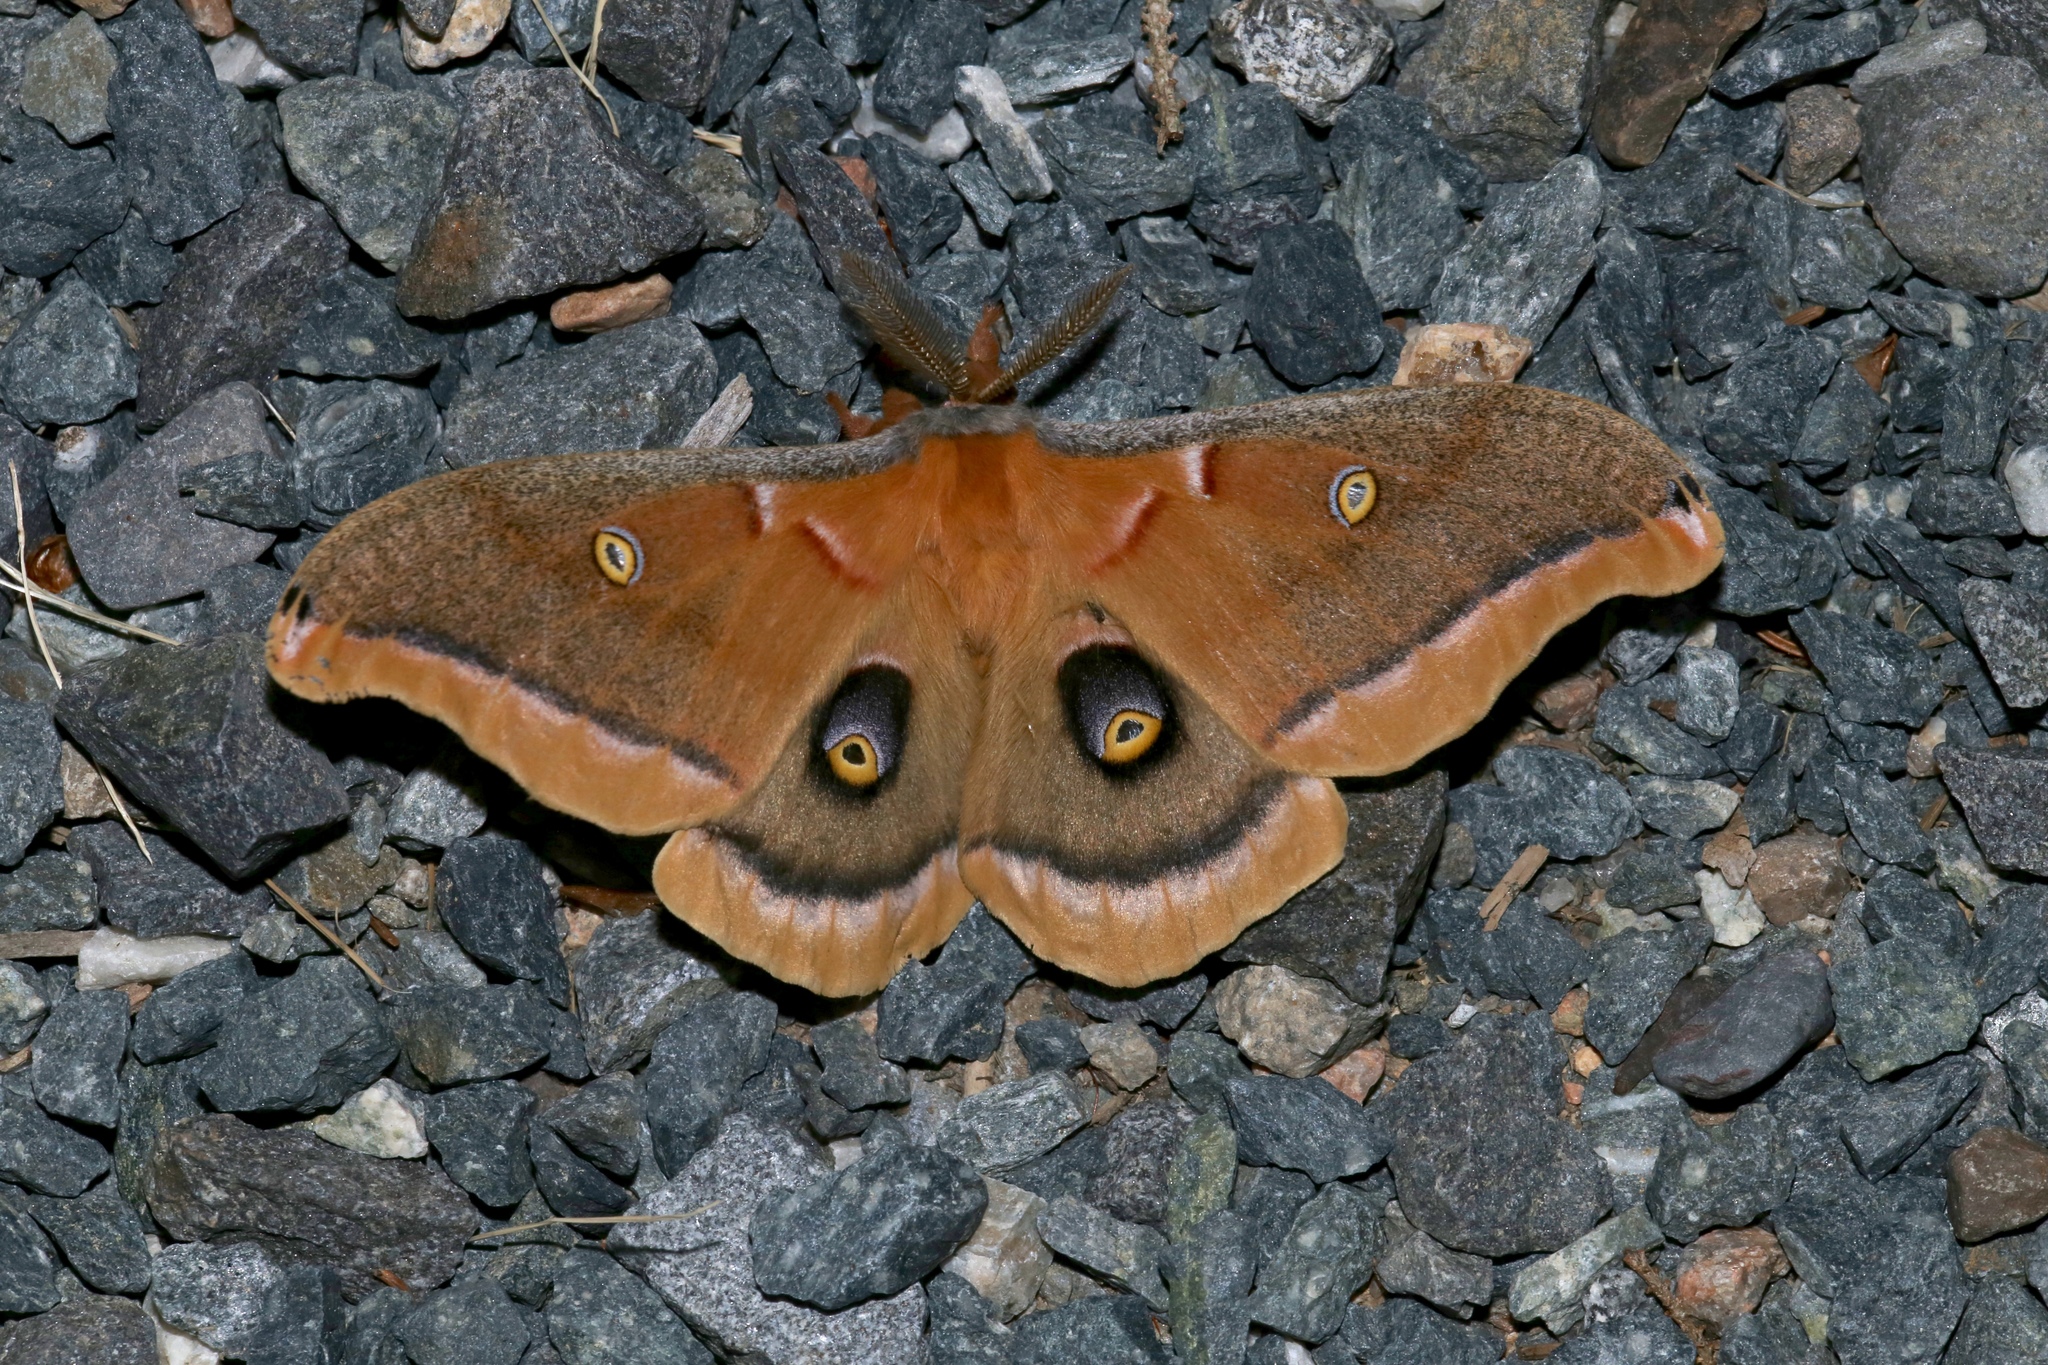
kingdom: Animalia
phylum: Arthropoda
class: Insecta
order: Lepidoptera
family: Saturniidae
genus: Antheraea
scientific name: Antheraea polyphemus
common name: Polyphemus moth
